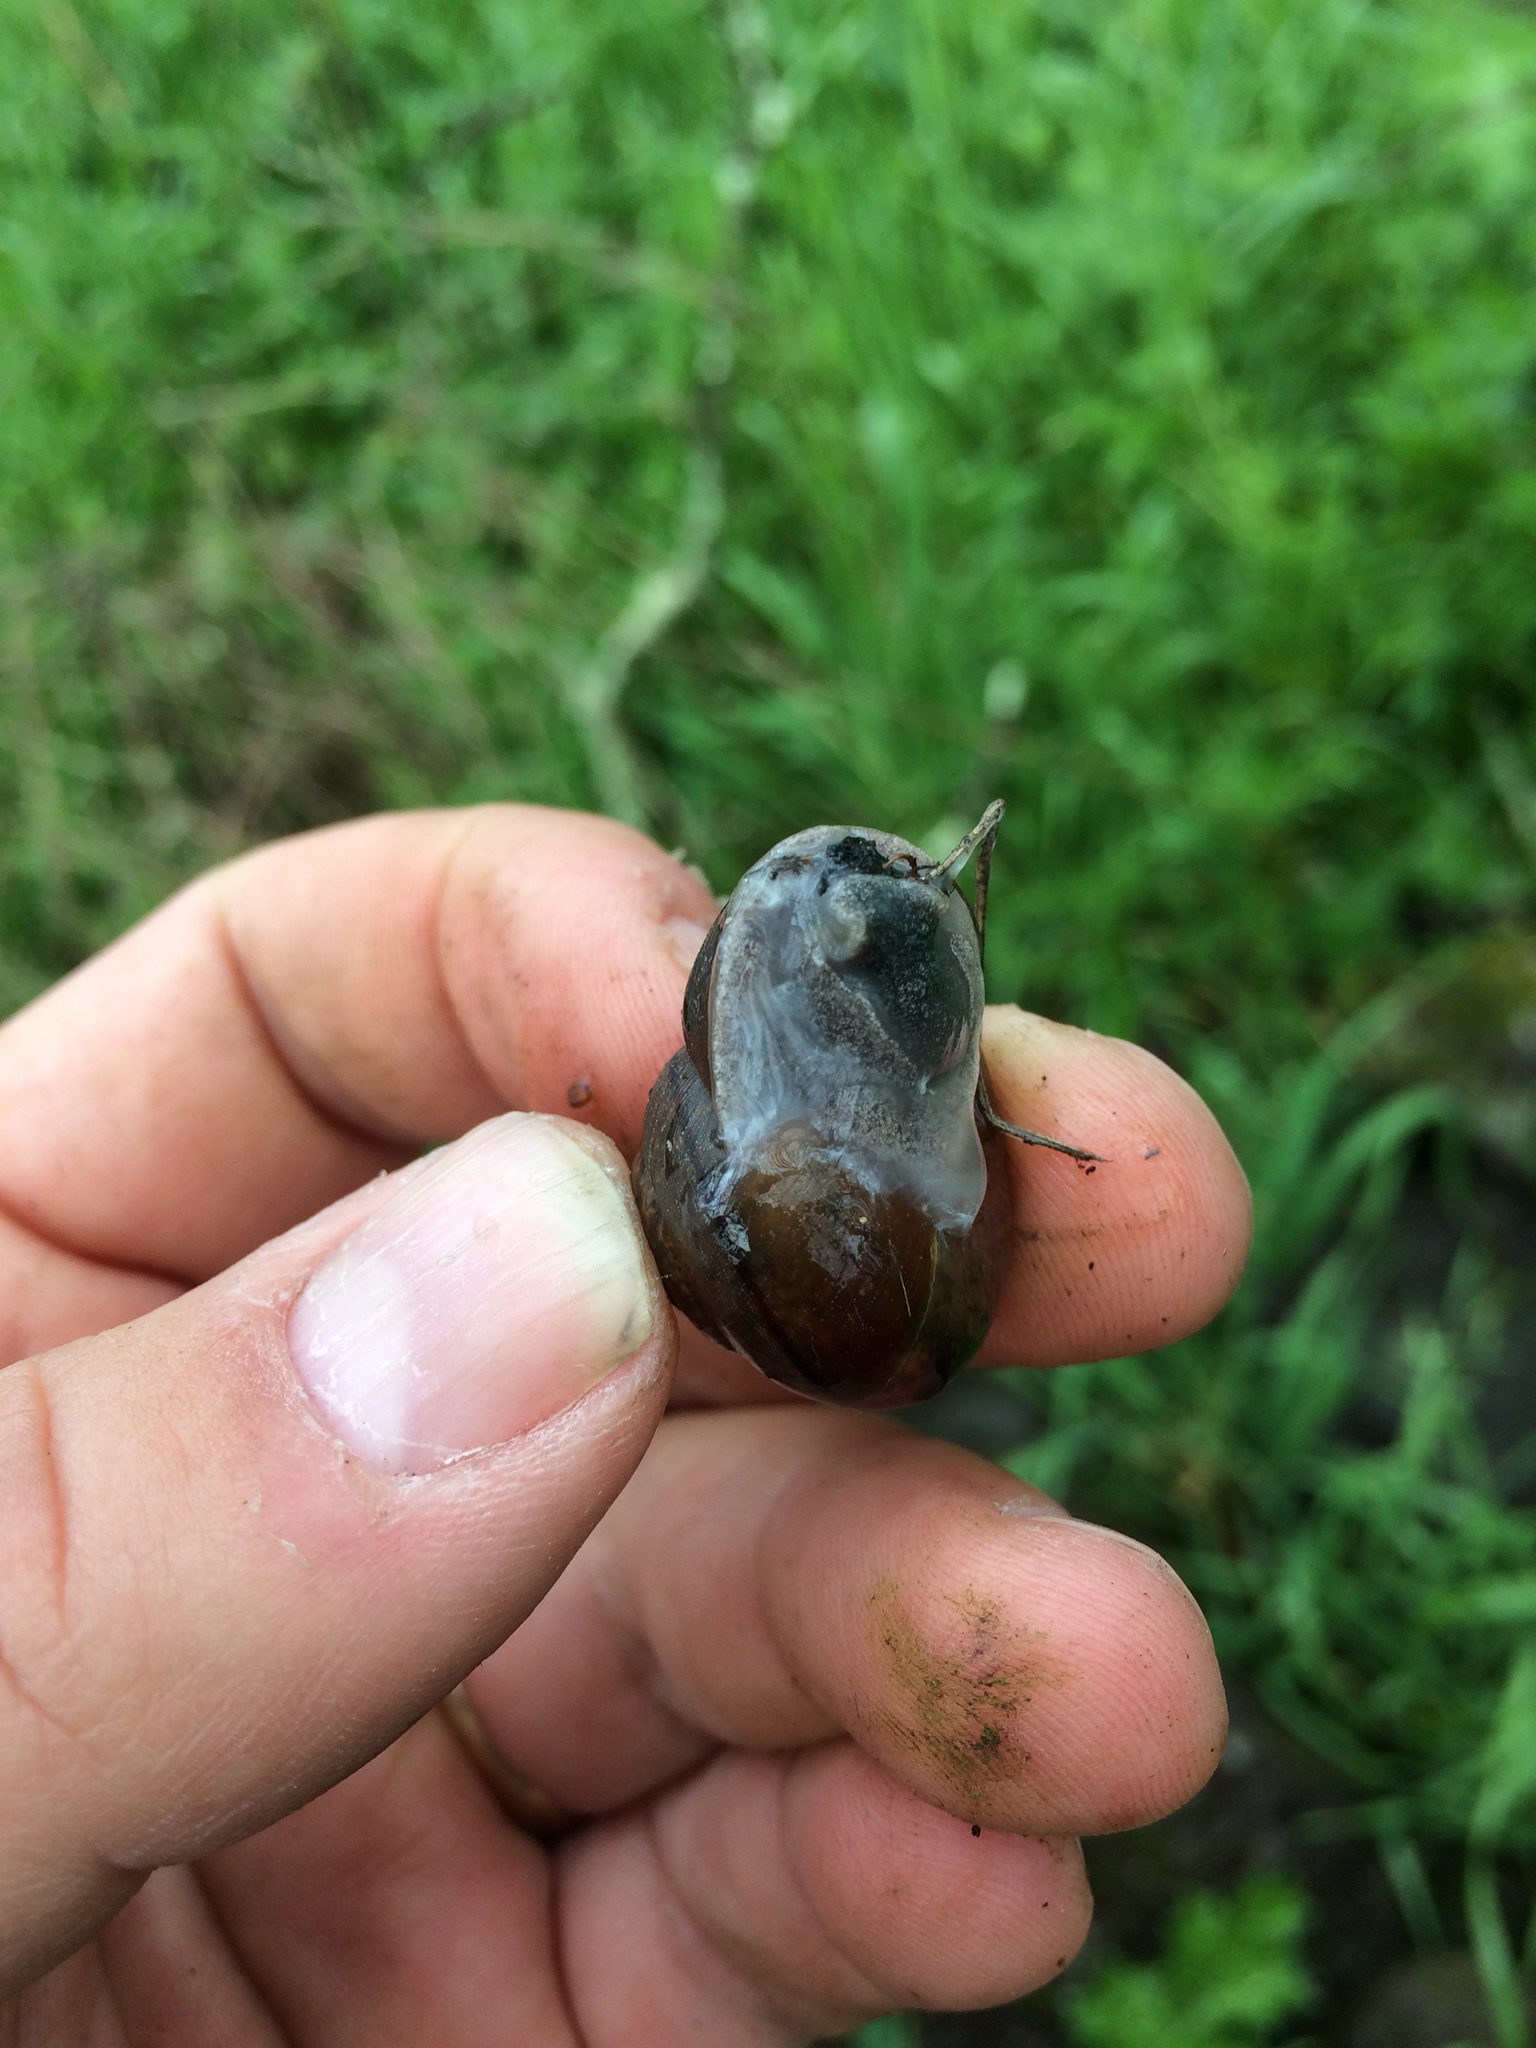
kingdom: Animalia
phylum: Mollusca
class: Gastropoda
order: Stylommatophora
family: Xanthonychidae
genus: Helminthoglypta
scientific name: Helminthoglypta nickliniana
